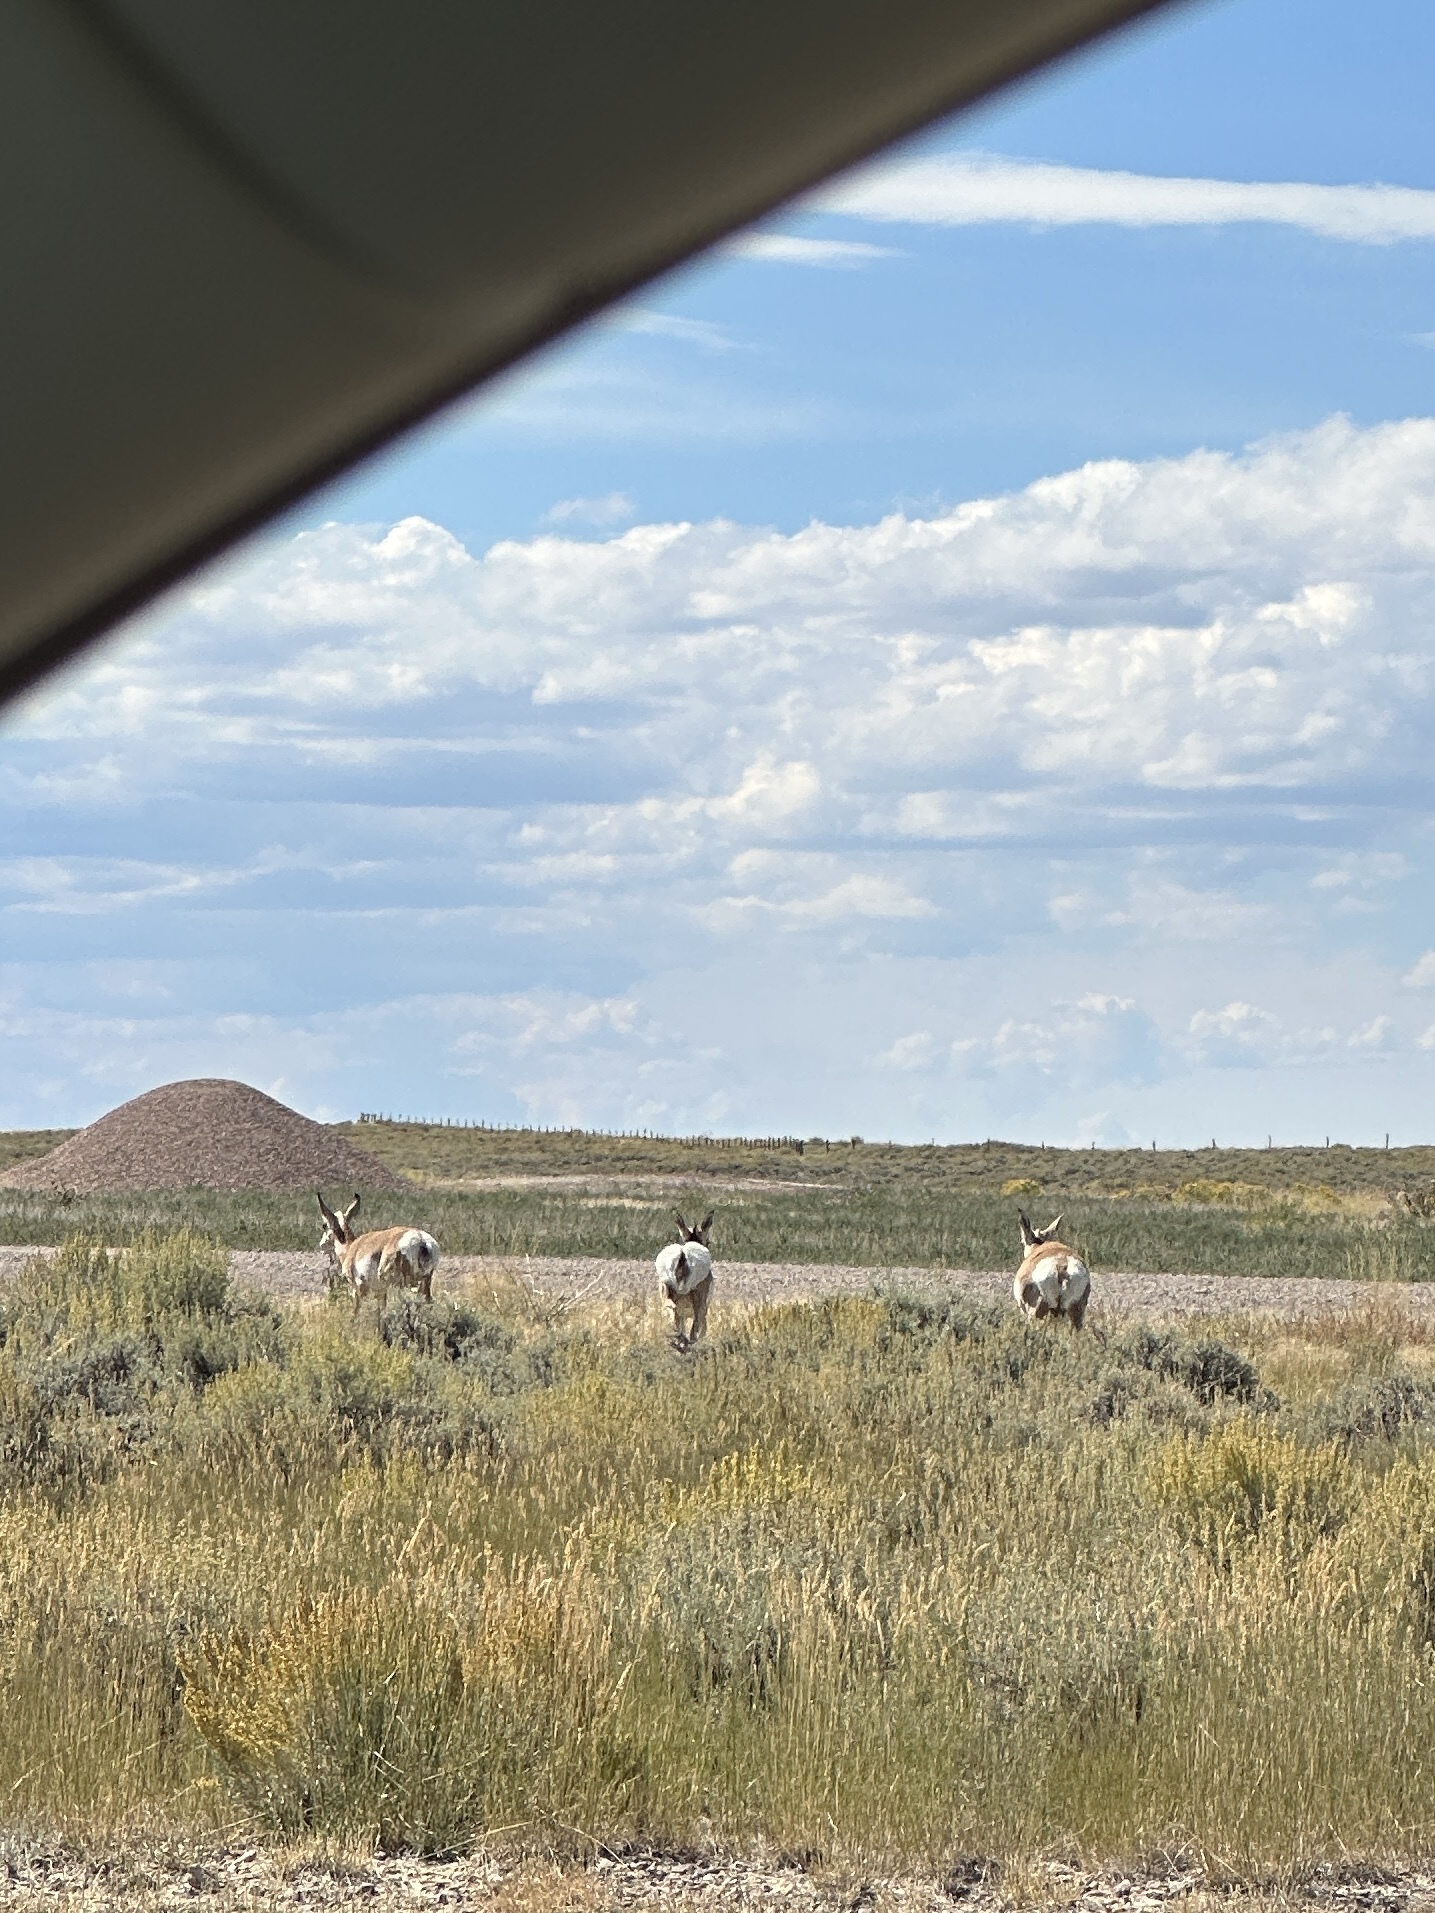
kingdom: Animalia
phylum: Chordata
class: Mammalia
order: Artiodactyla
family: Antilocapridae
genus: Antilocapra
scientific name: Antilocapra americana
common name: Pronghorn
